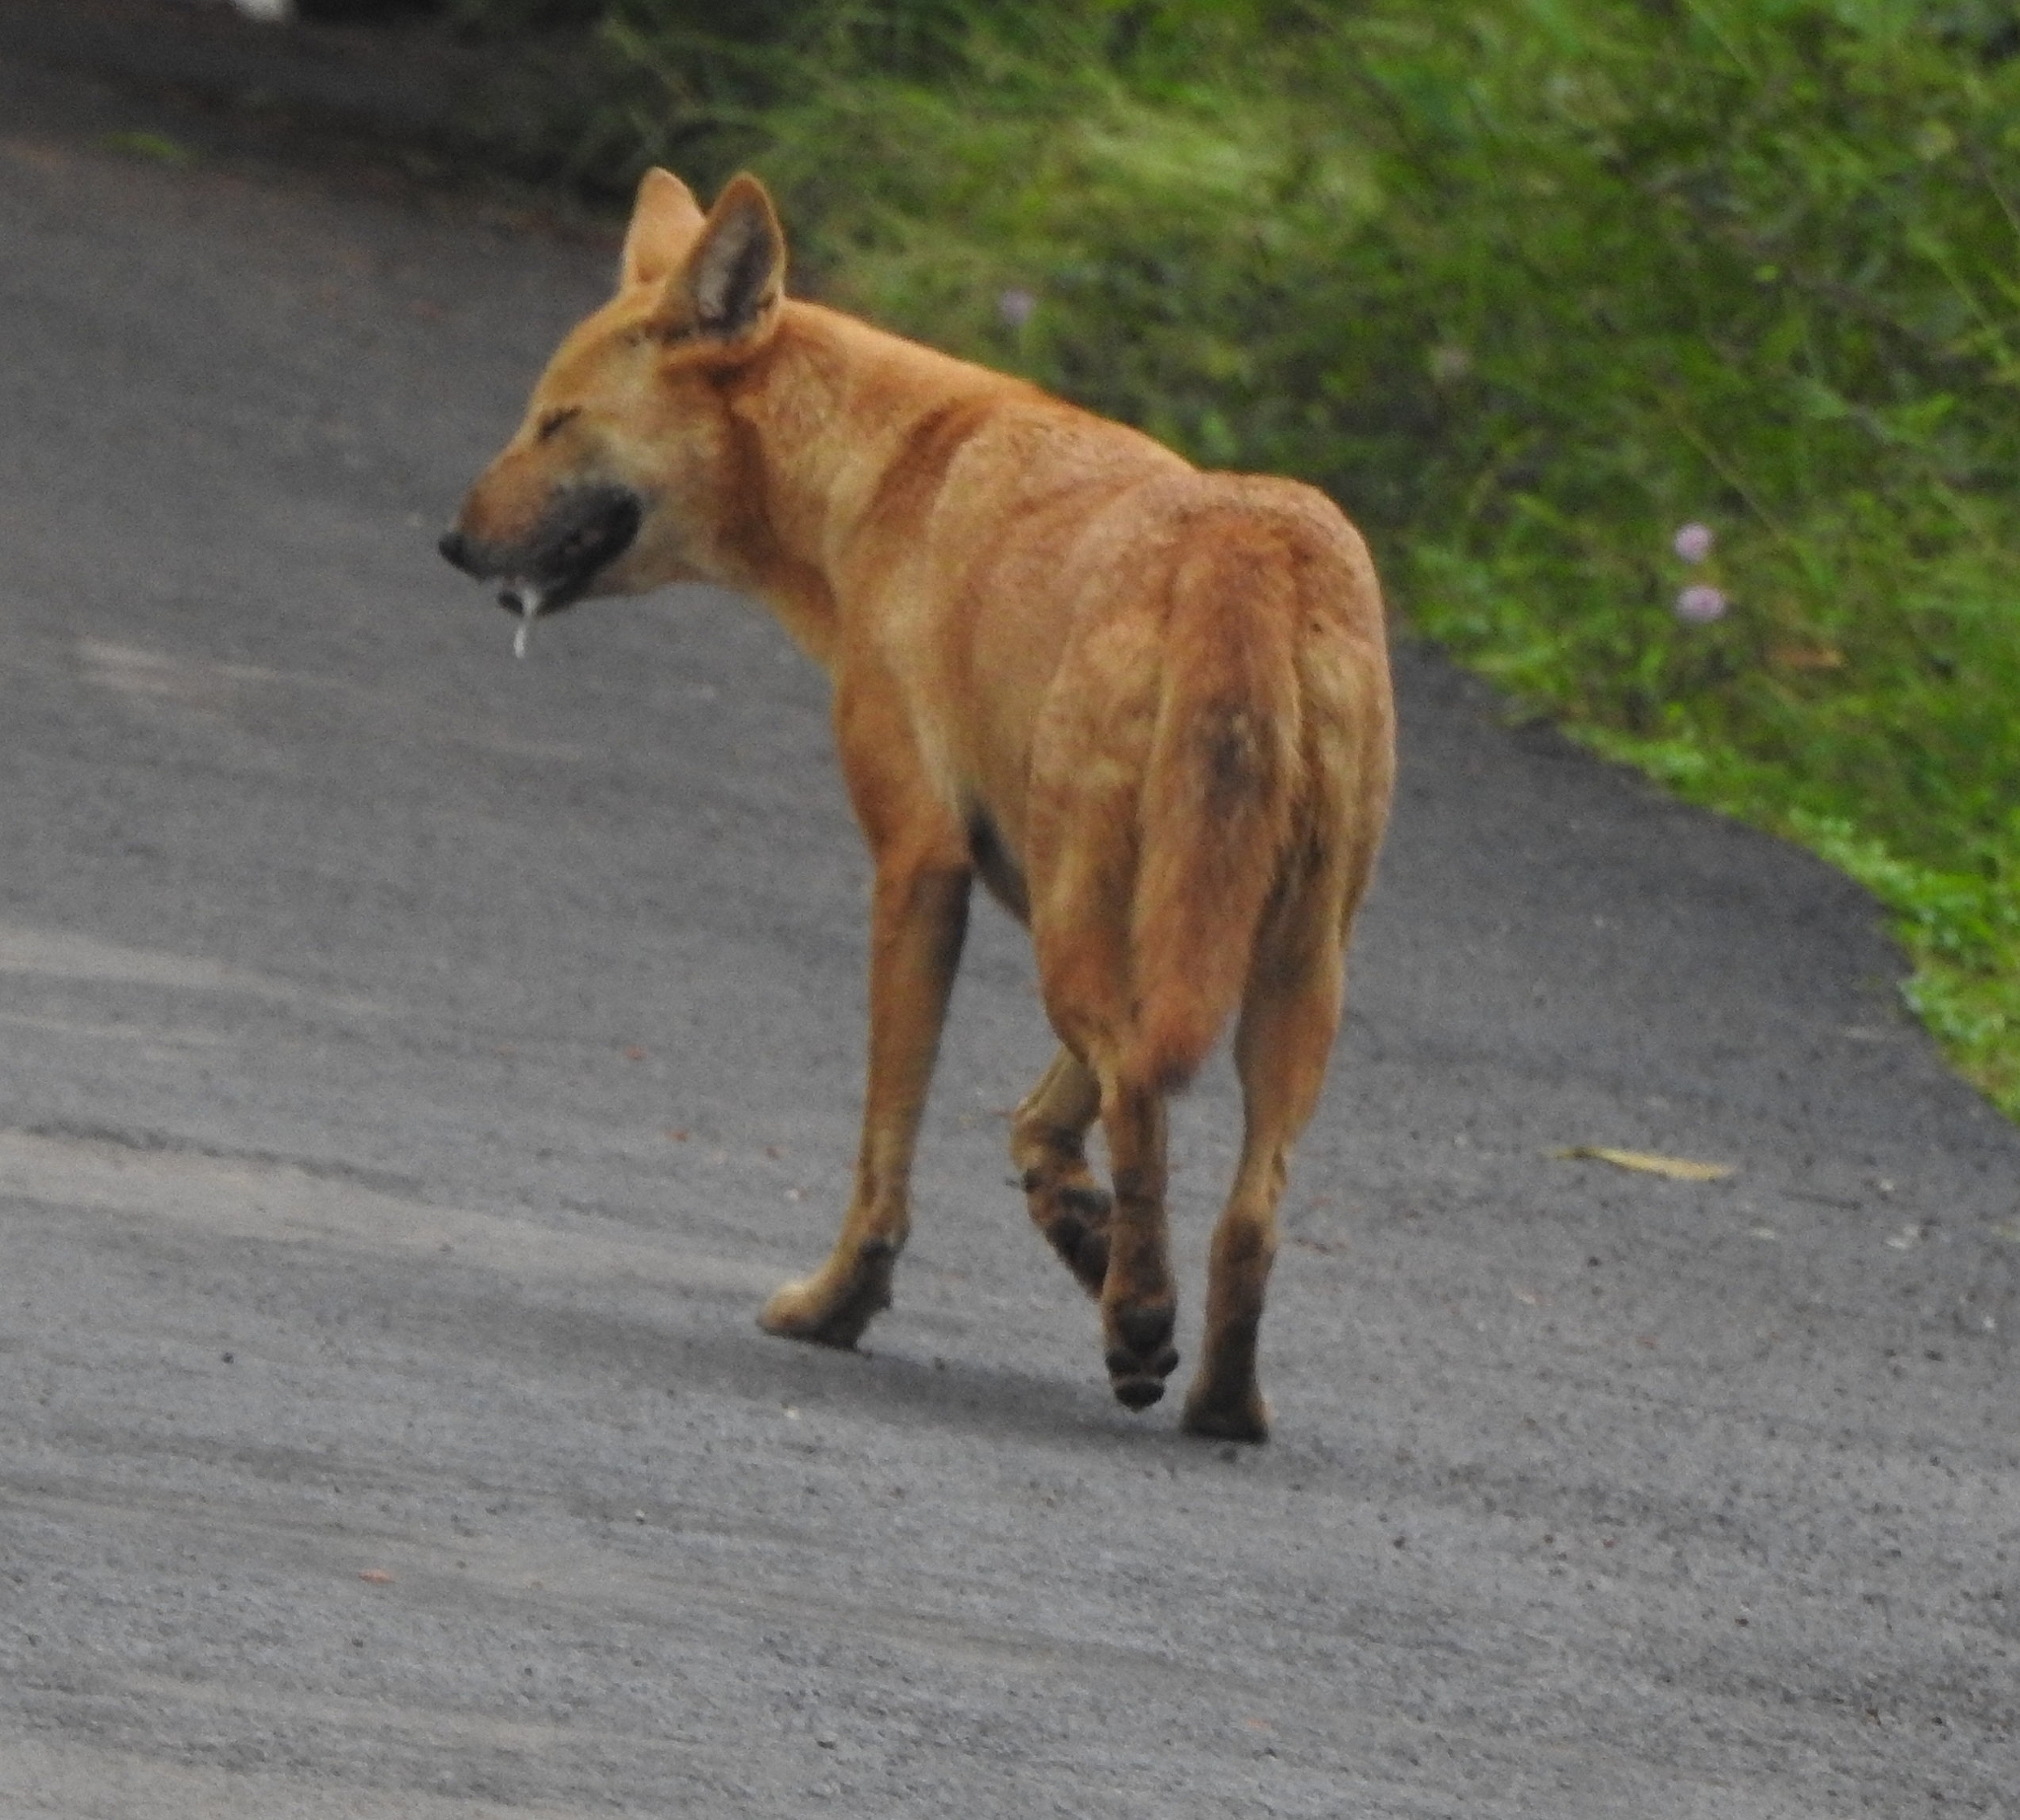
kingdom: Animalia
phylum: Chordata
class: Mammalia
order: Carnivora
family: Canidae
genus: Canis
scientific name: Canis lupus
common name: Gray wolf
